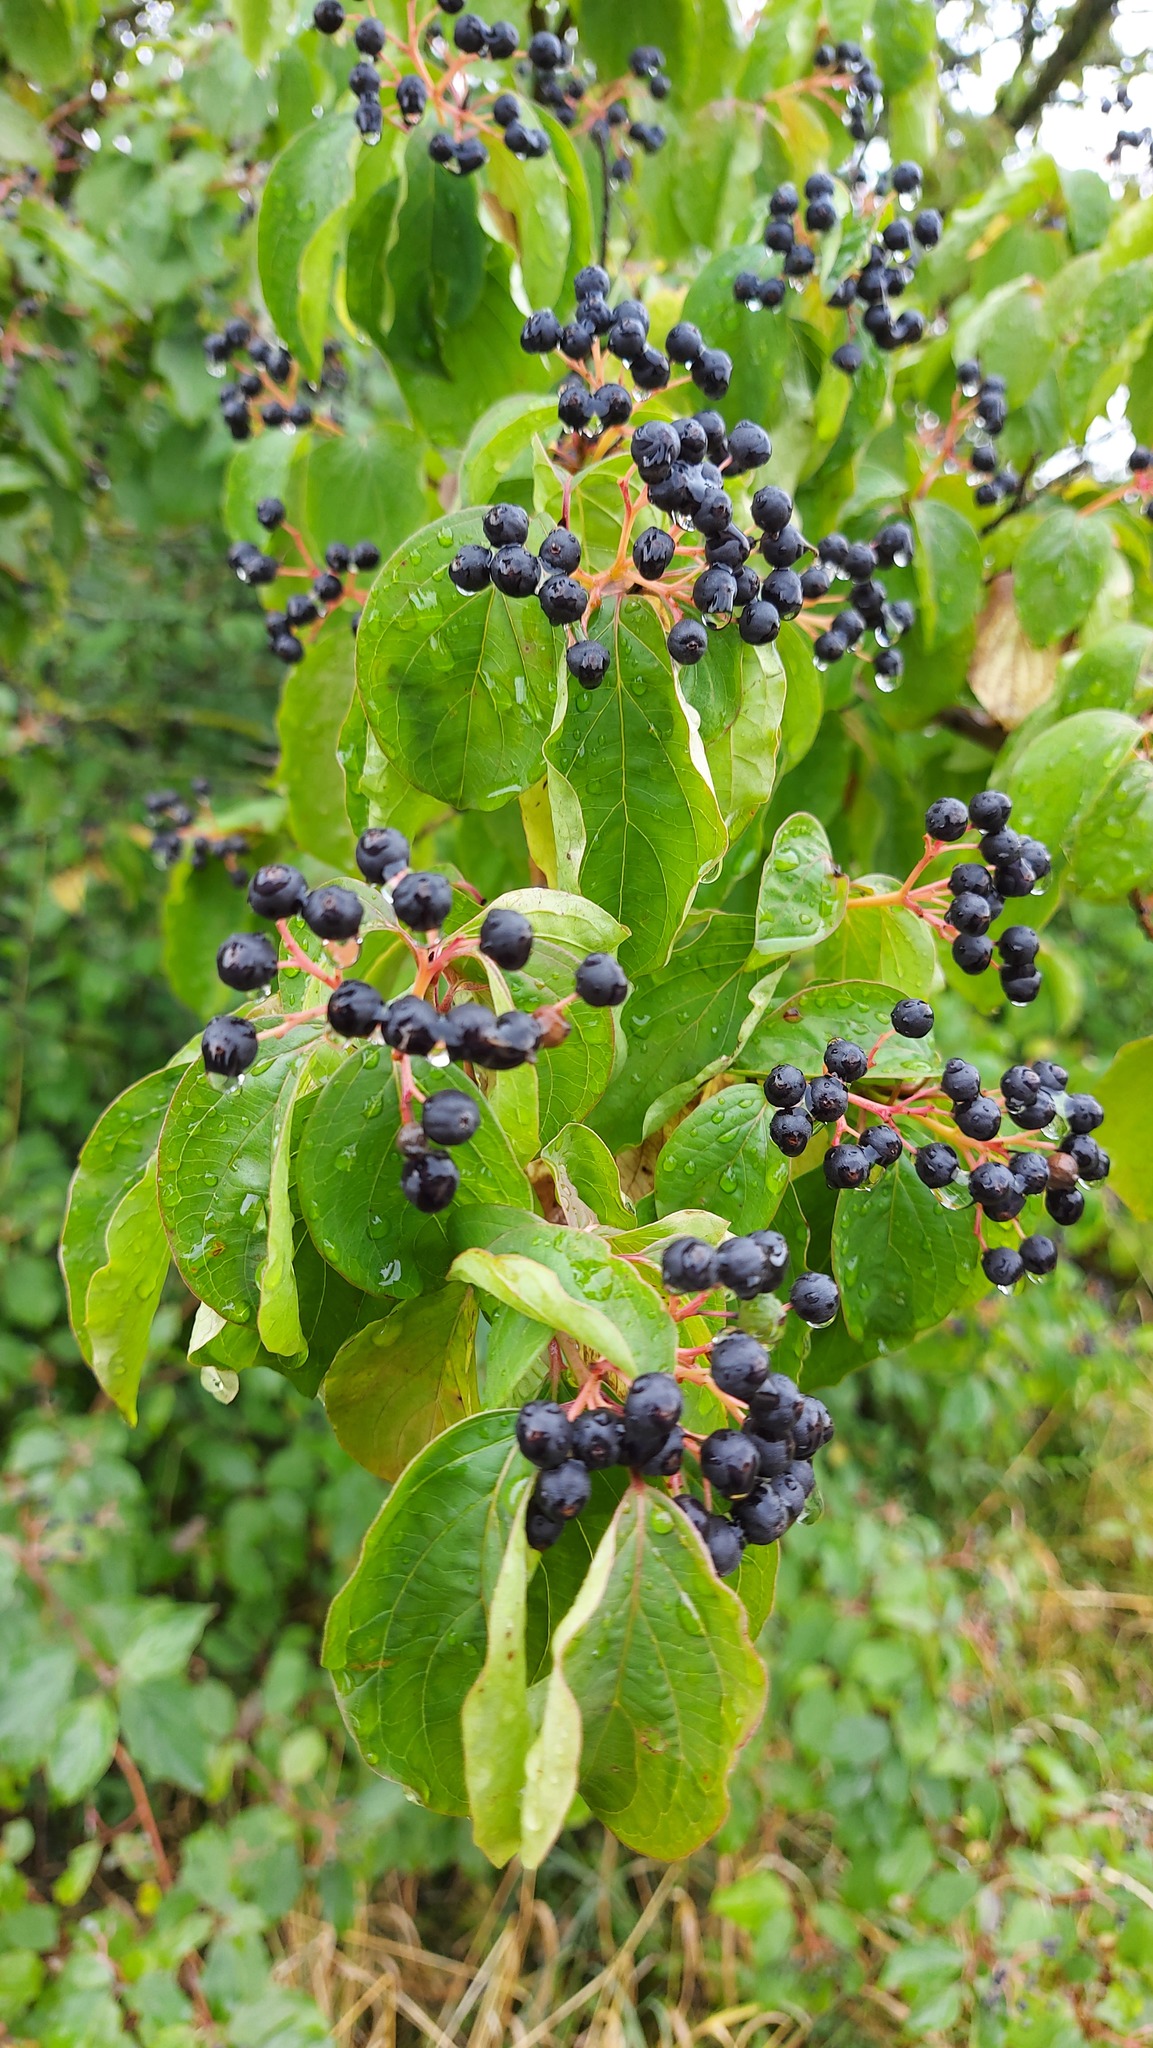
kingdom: Plantae
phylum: Tracheophyta
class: Magnoliopsida
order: Cornales
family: Cornaceae
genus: Cornus
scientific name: Cornus sanguinea
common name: Dogwood
